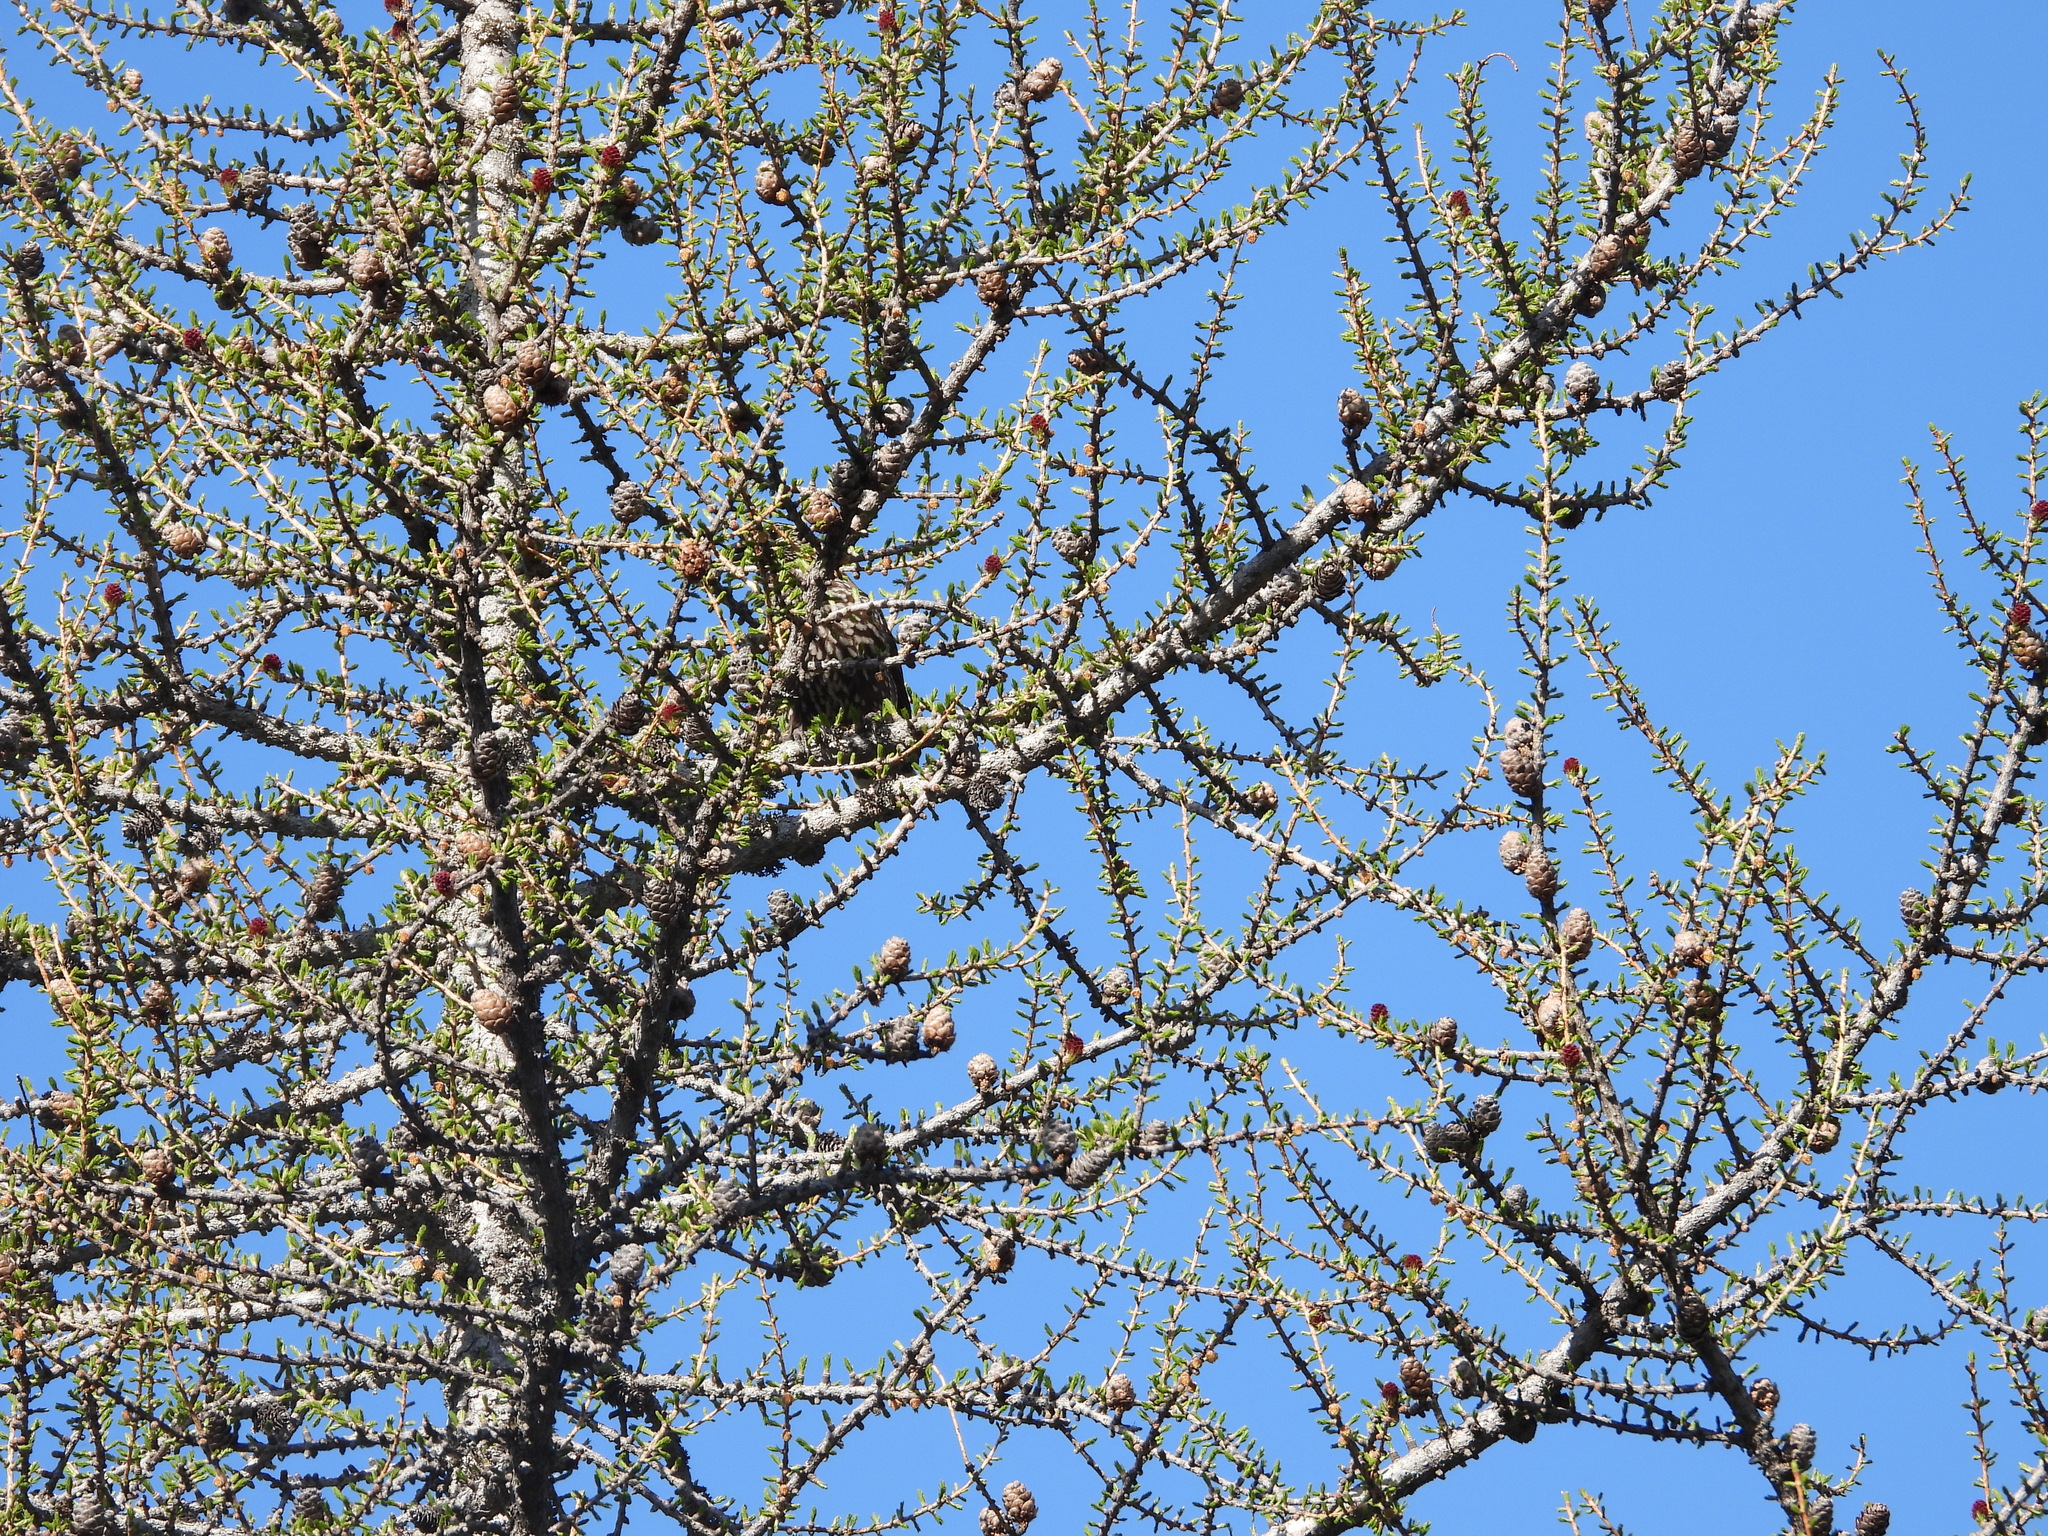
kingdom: Animalia
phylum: Chordata
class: Aves
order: Passeriformes
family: Corvidae
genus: Nucifraga
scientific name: Nucifraga caryocatactes
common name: Spotted nutcracker
